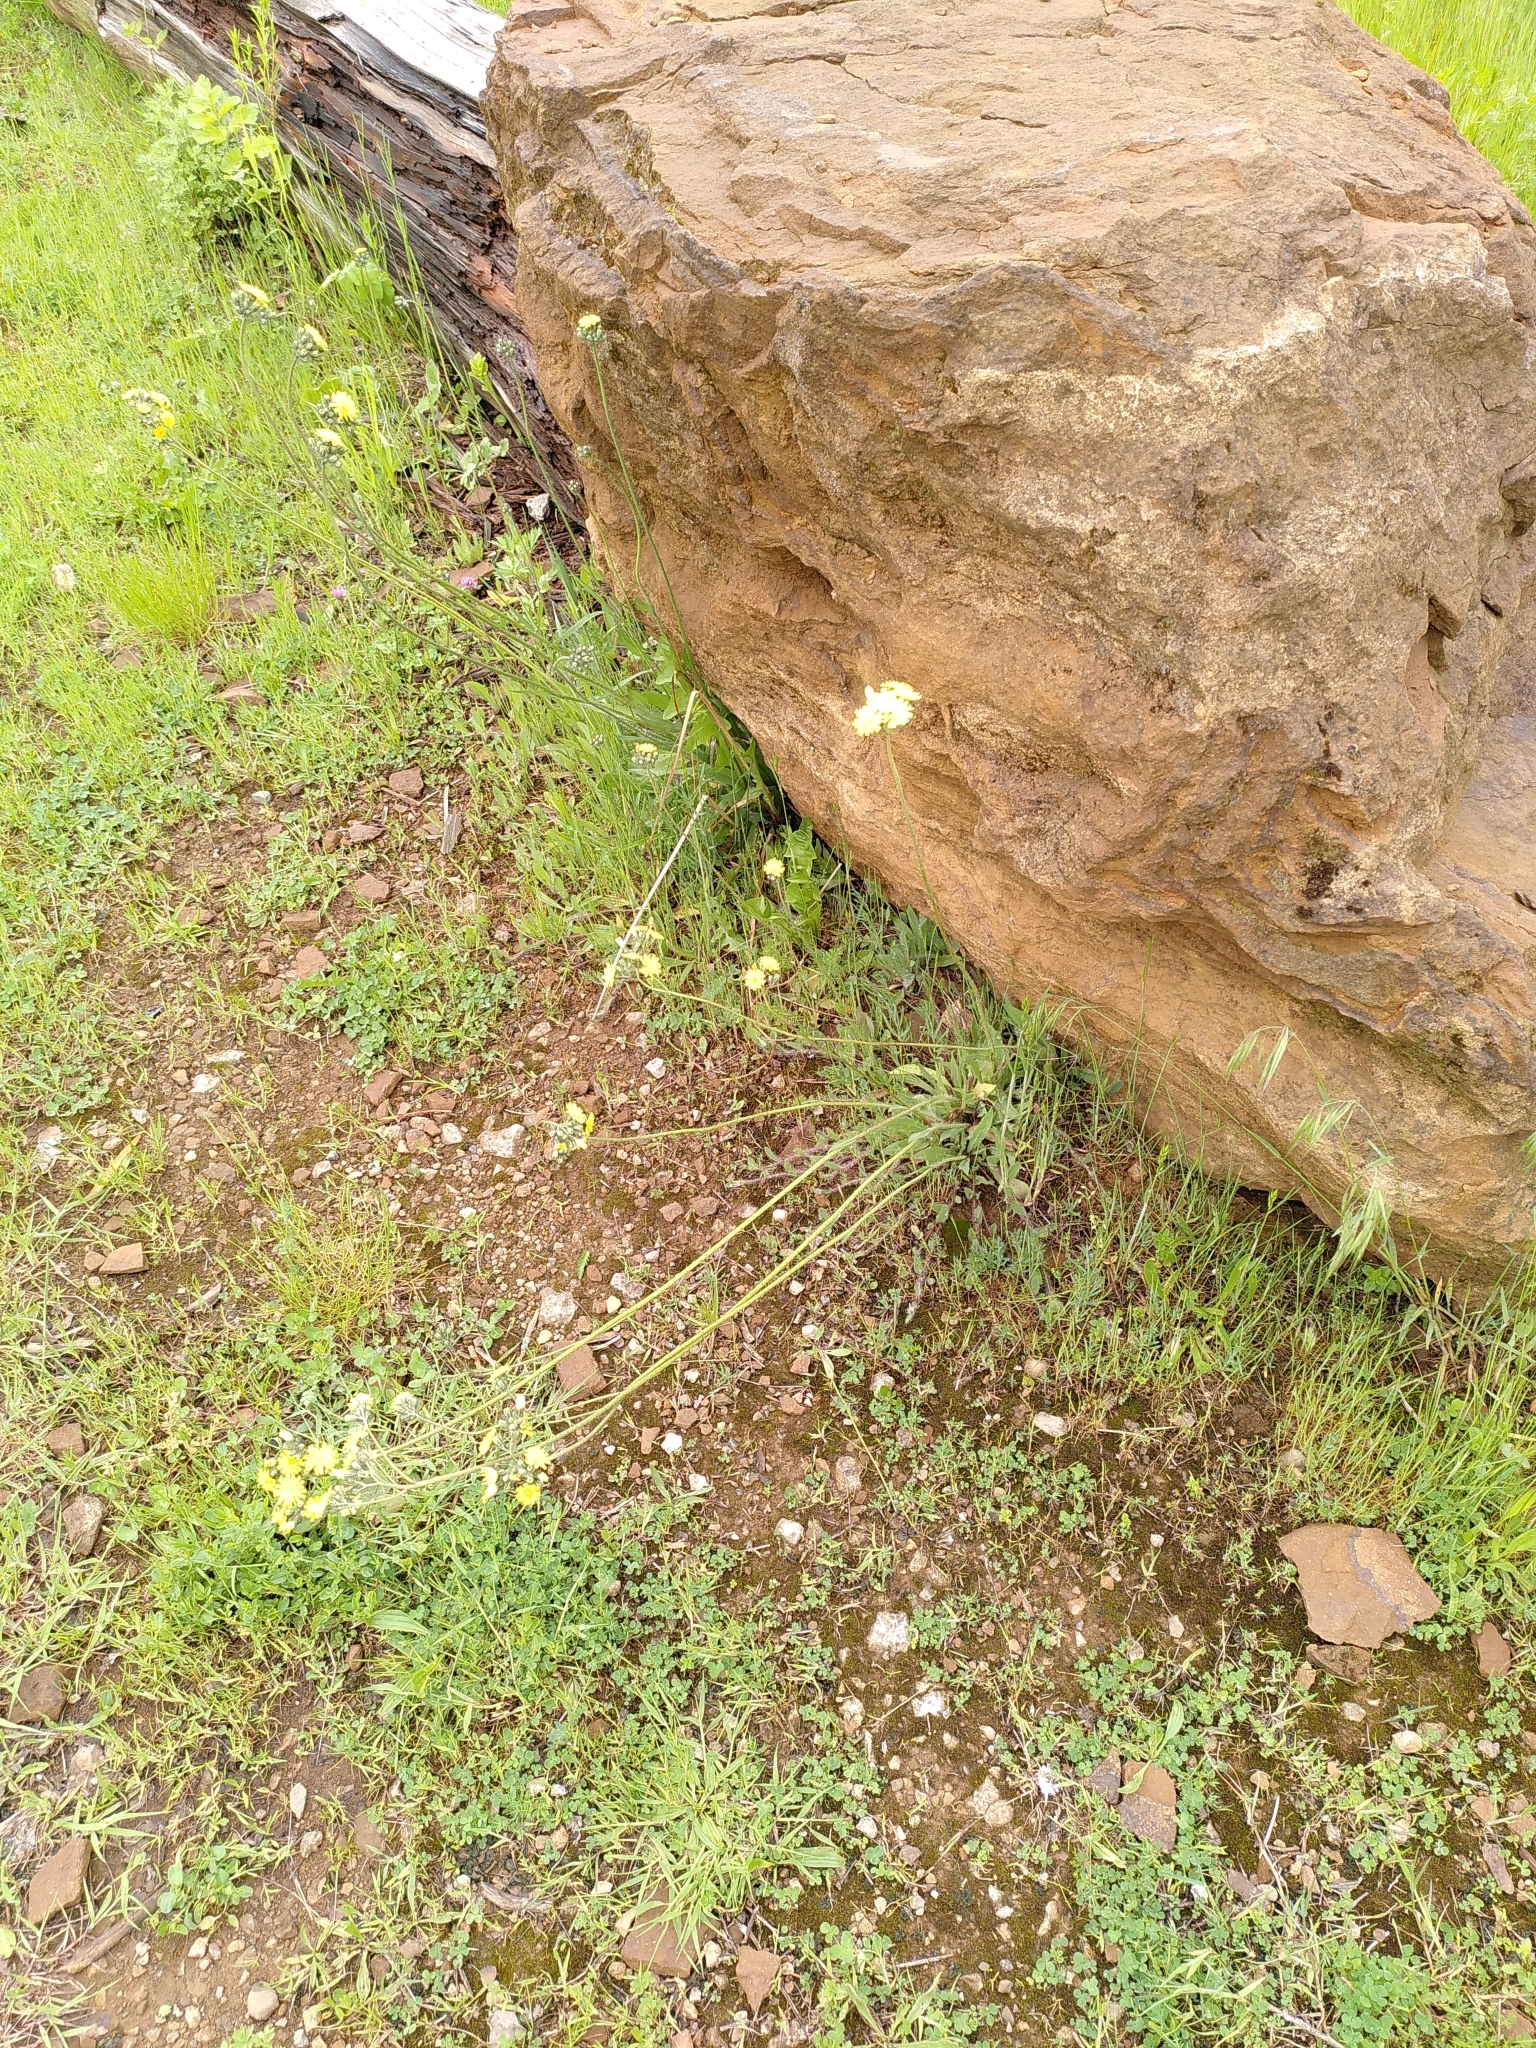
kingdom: Plantae
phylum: Tracheophyta
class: Magnoliopsida
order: Asterales
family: Asteraceae
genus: Pilosella
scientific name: Pilosella bauhini
